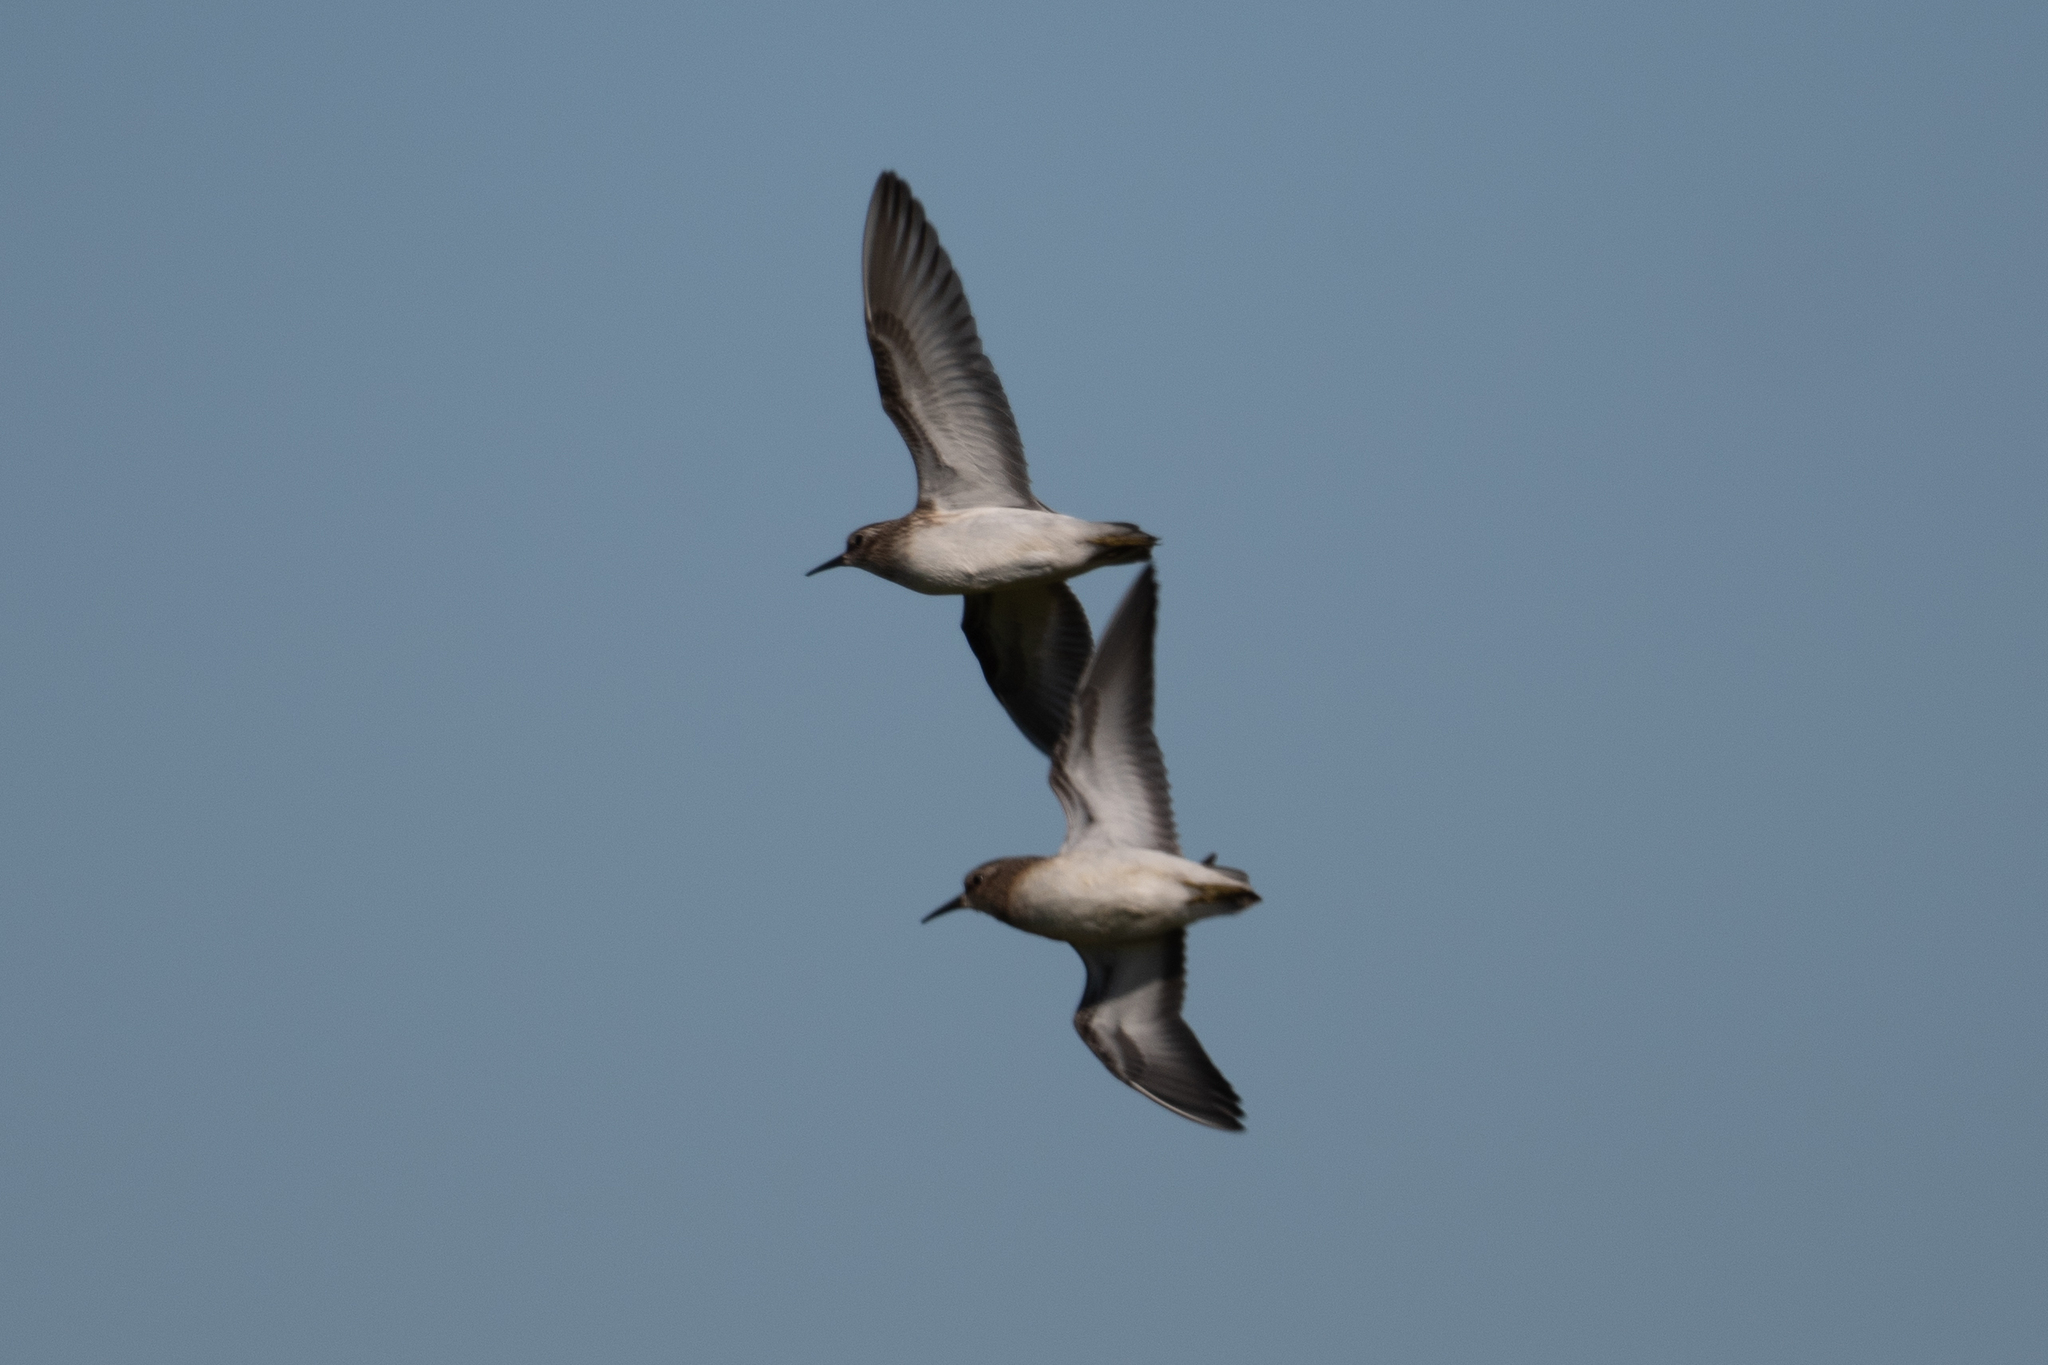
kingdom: Animalia
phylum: Chordata
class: Aves
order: Charadriiformes
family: Scolopacidae
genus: Calidris
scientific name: Calidris minutilla
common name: Least sandpiper
